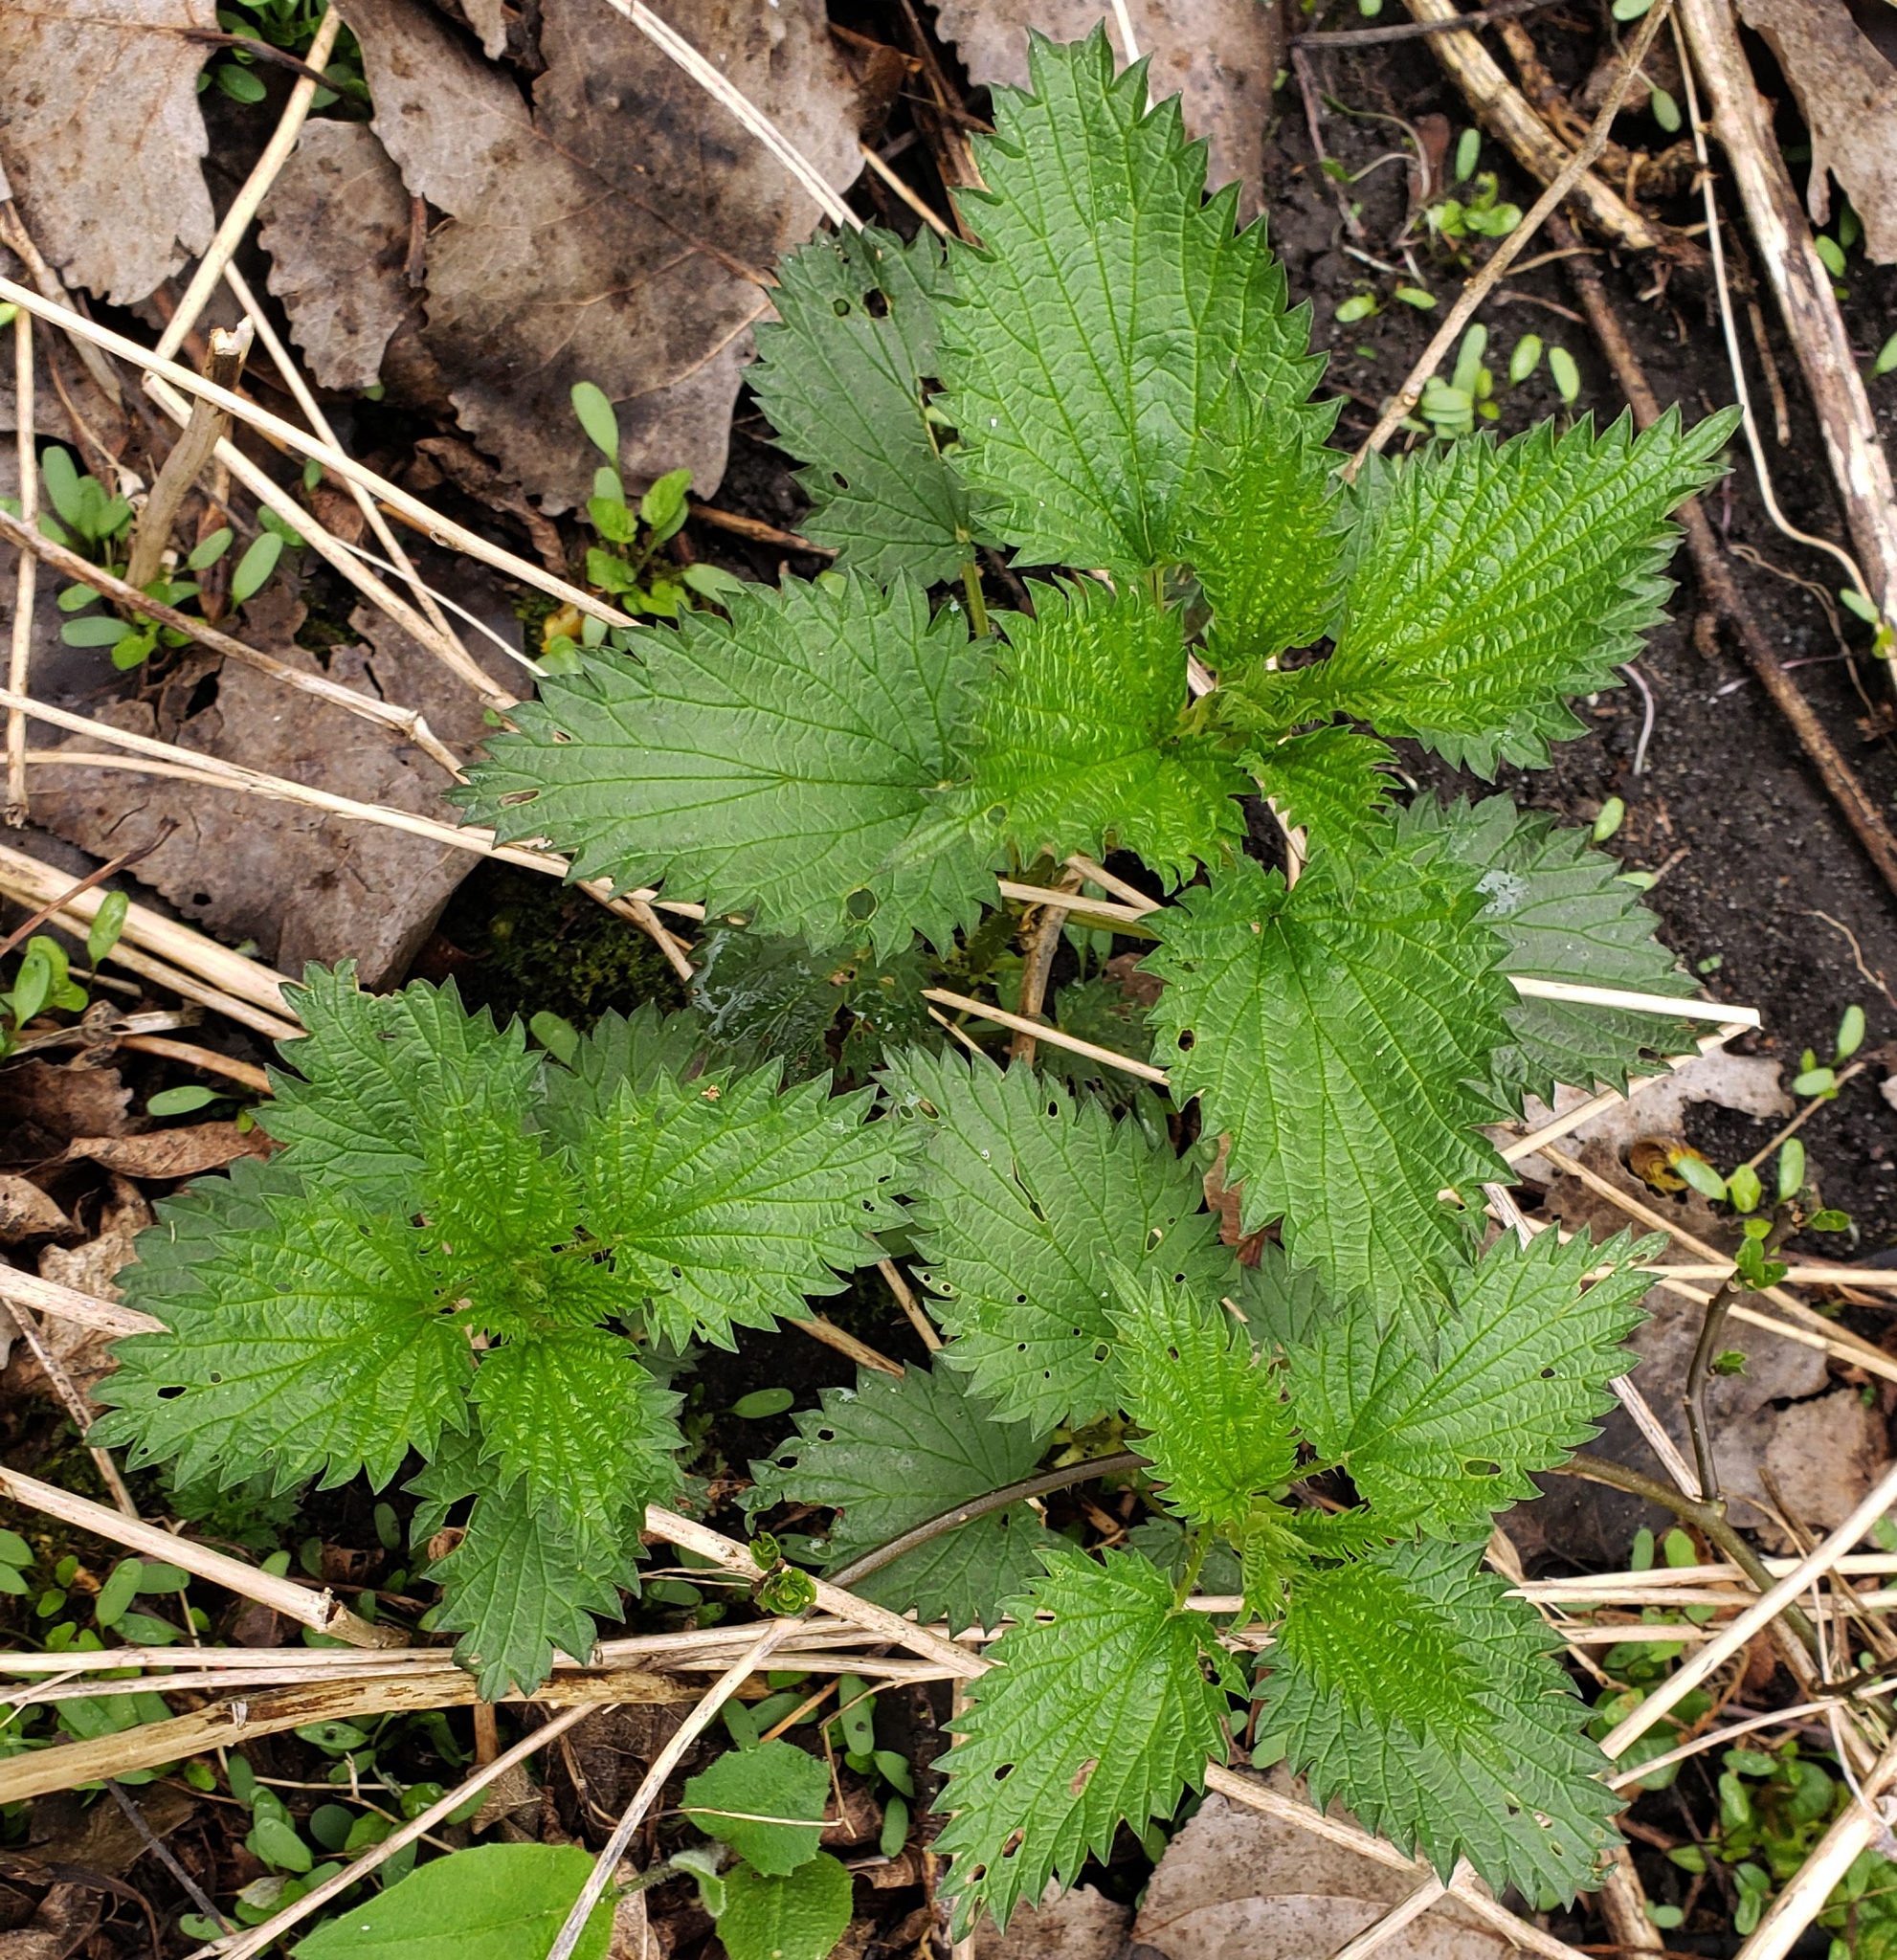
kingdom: Plantae
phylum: Tracheophyta
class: Magnoliopsida
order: Rosales
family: Urticaceae
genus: Urtica
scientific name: Urtica dioica
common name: Common nettle
